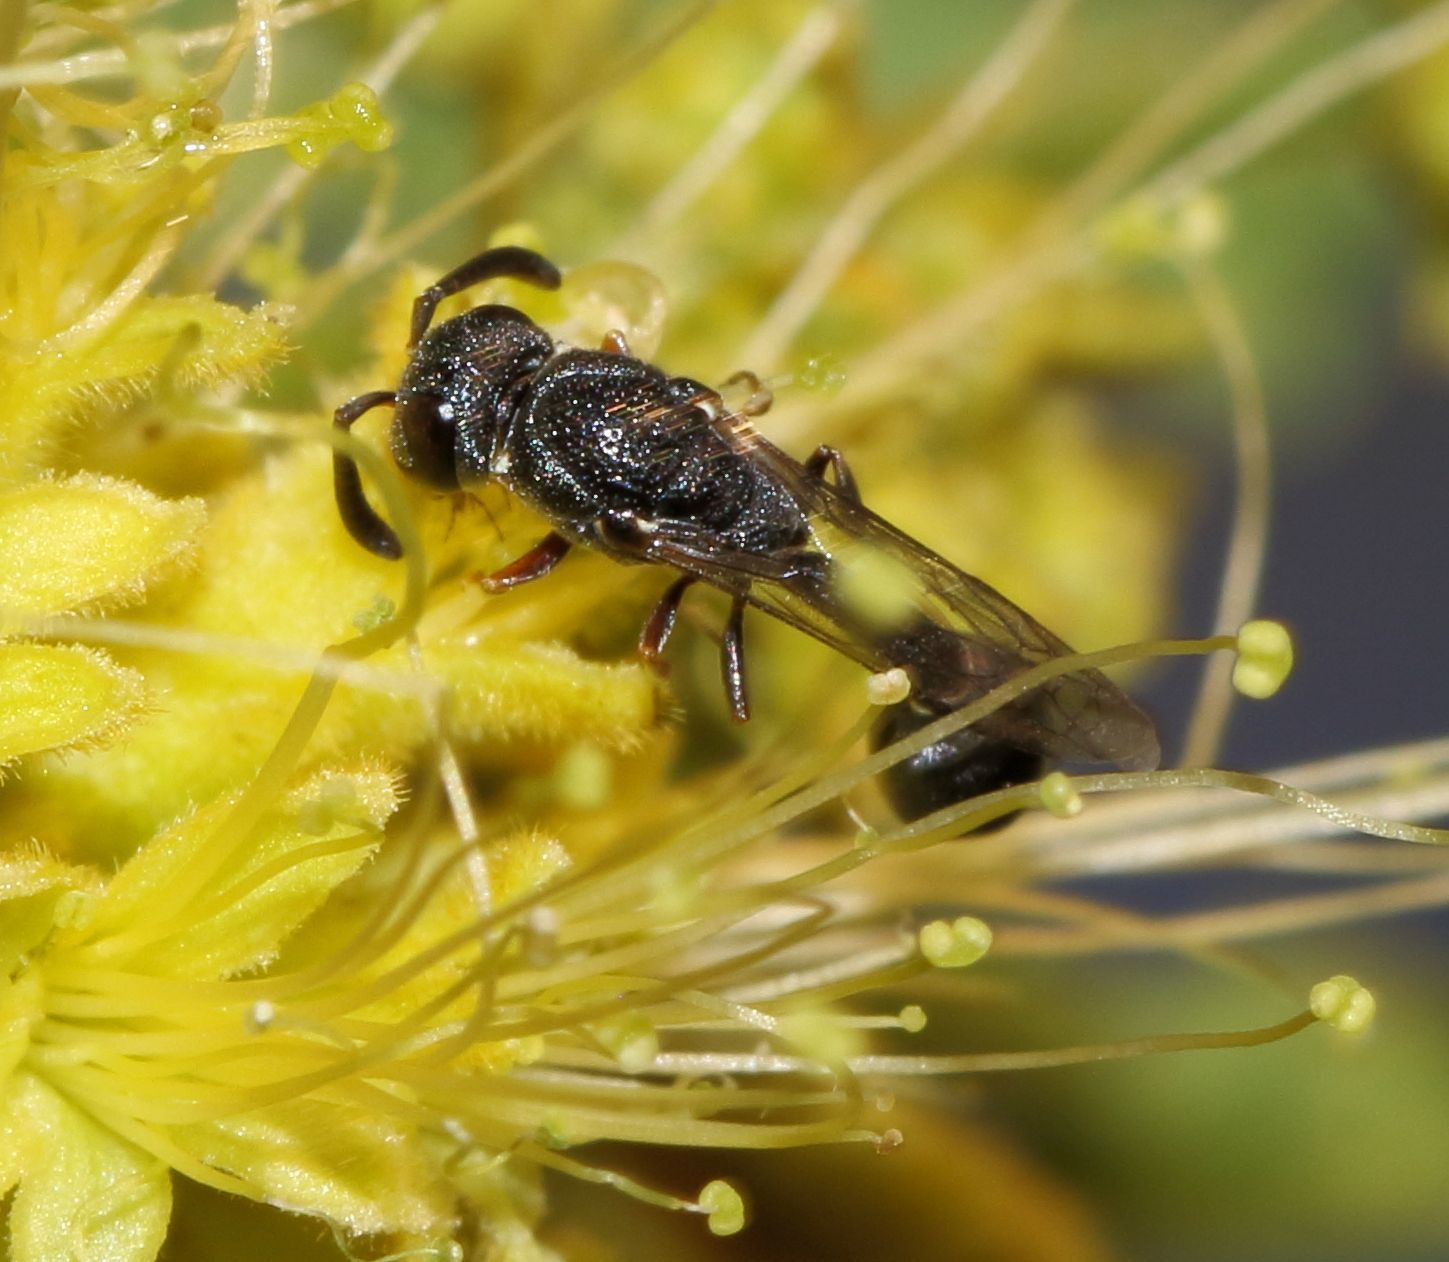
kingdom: Animalia
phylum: Arthropoda
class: Insecta
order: Hymenoptera
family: Eumenidae
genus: Micreumenes
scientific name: Micreumenes
